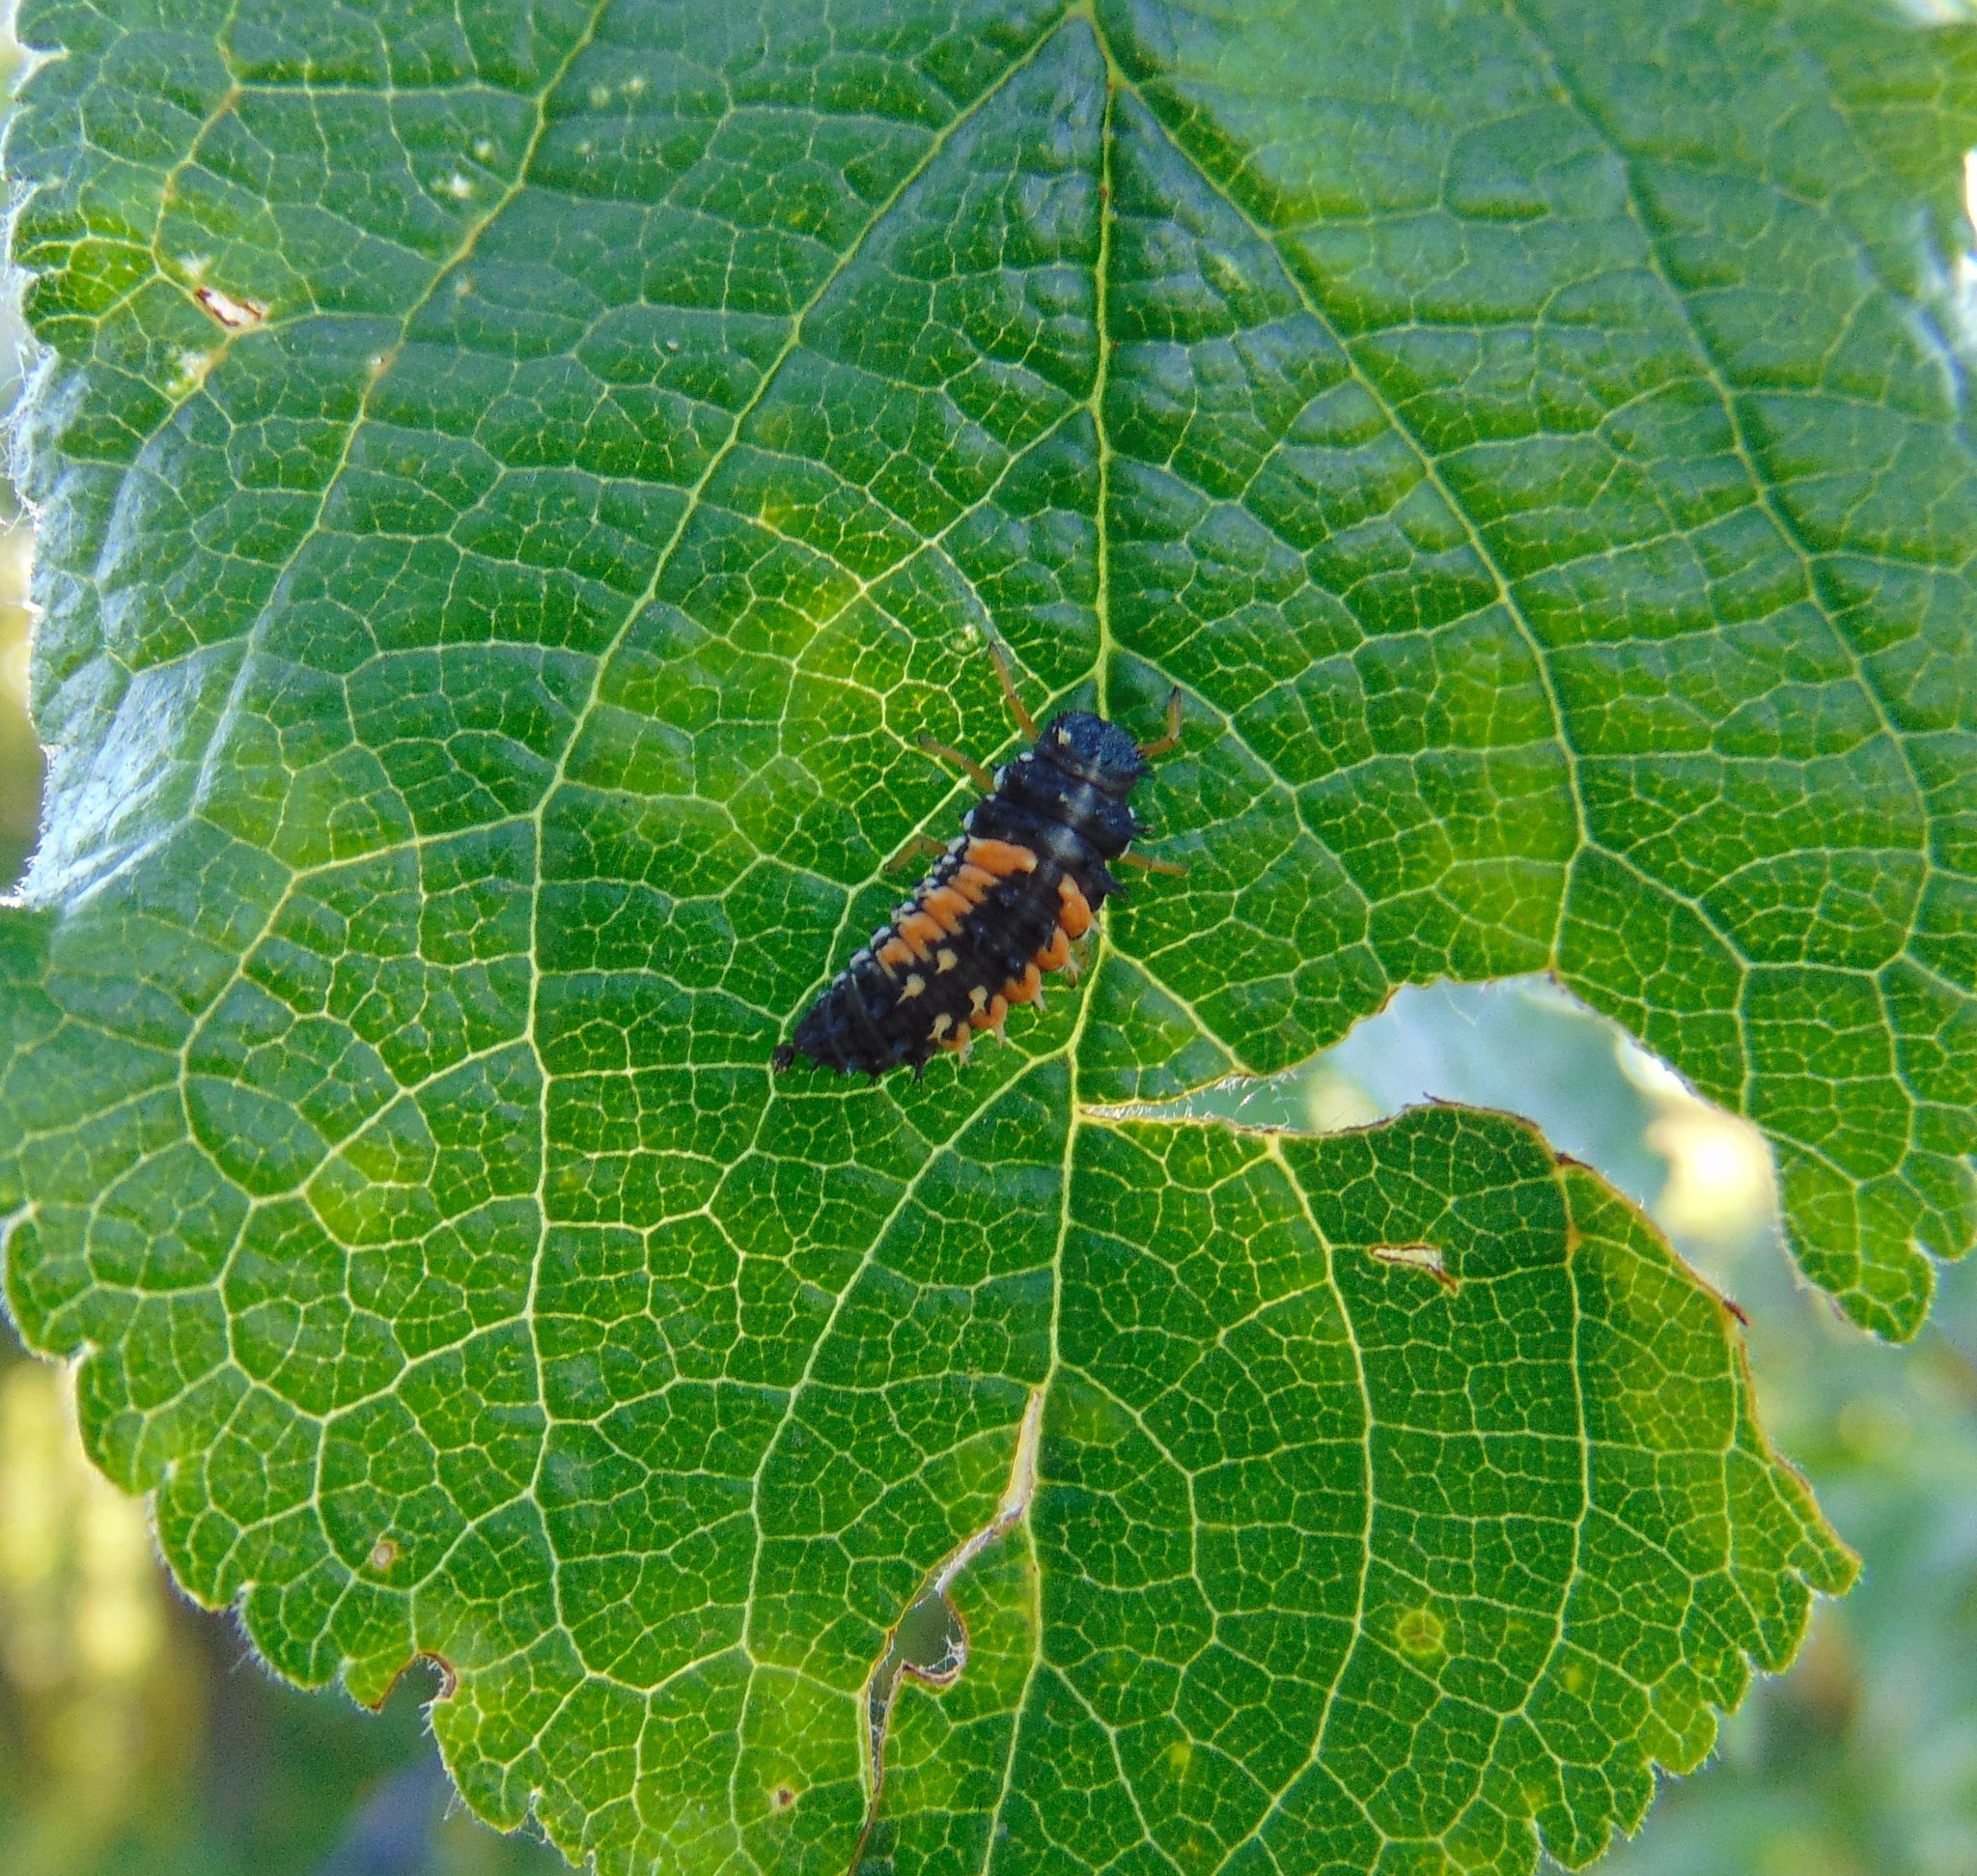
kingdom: Animalia
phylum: Arthropoda
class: Insecta
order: Coleoptera
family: Coccinellidae
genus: Harmonia
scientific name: Harmonia axyridis
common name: Harlequin ladybird
